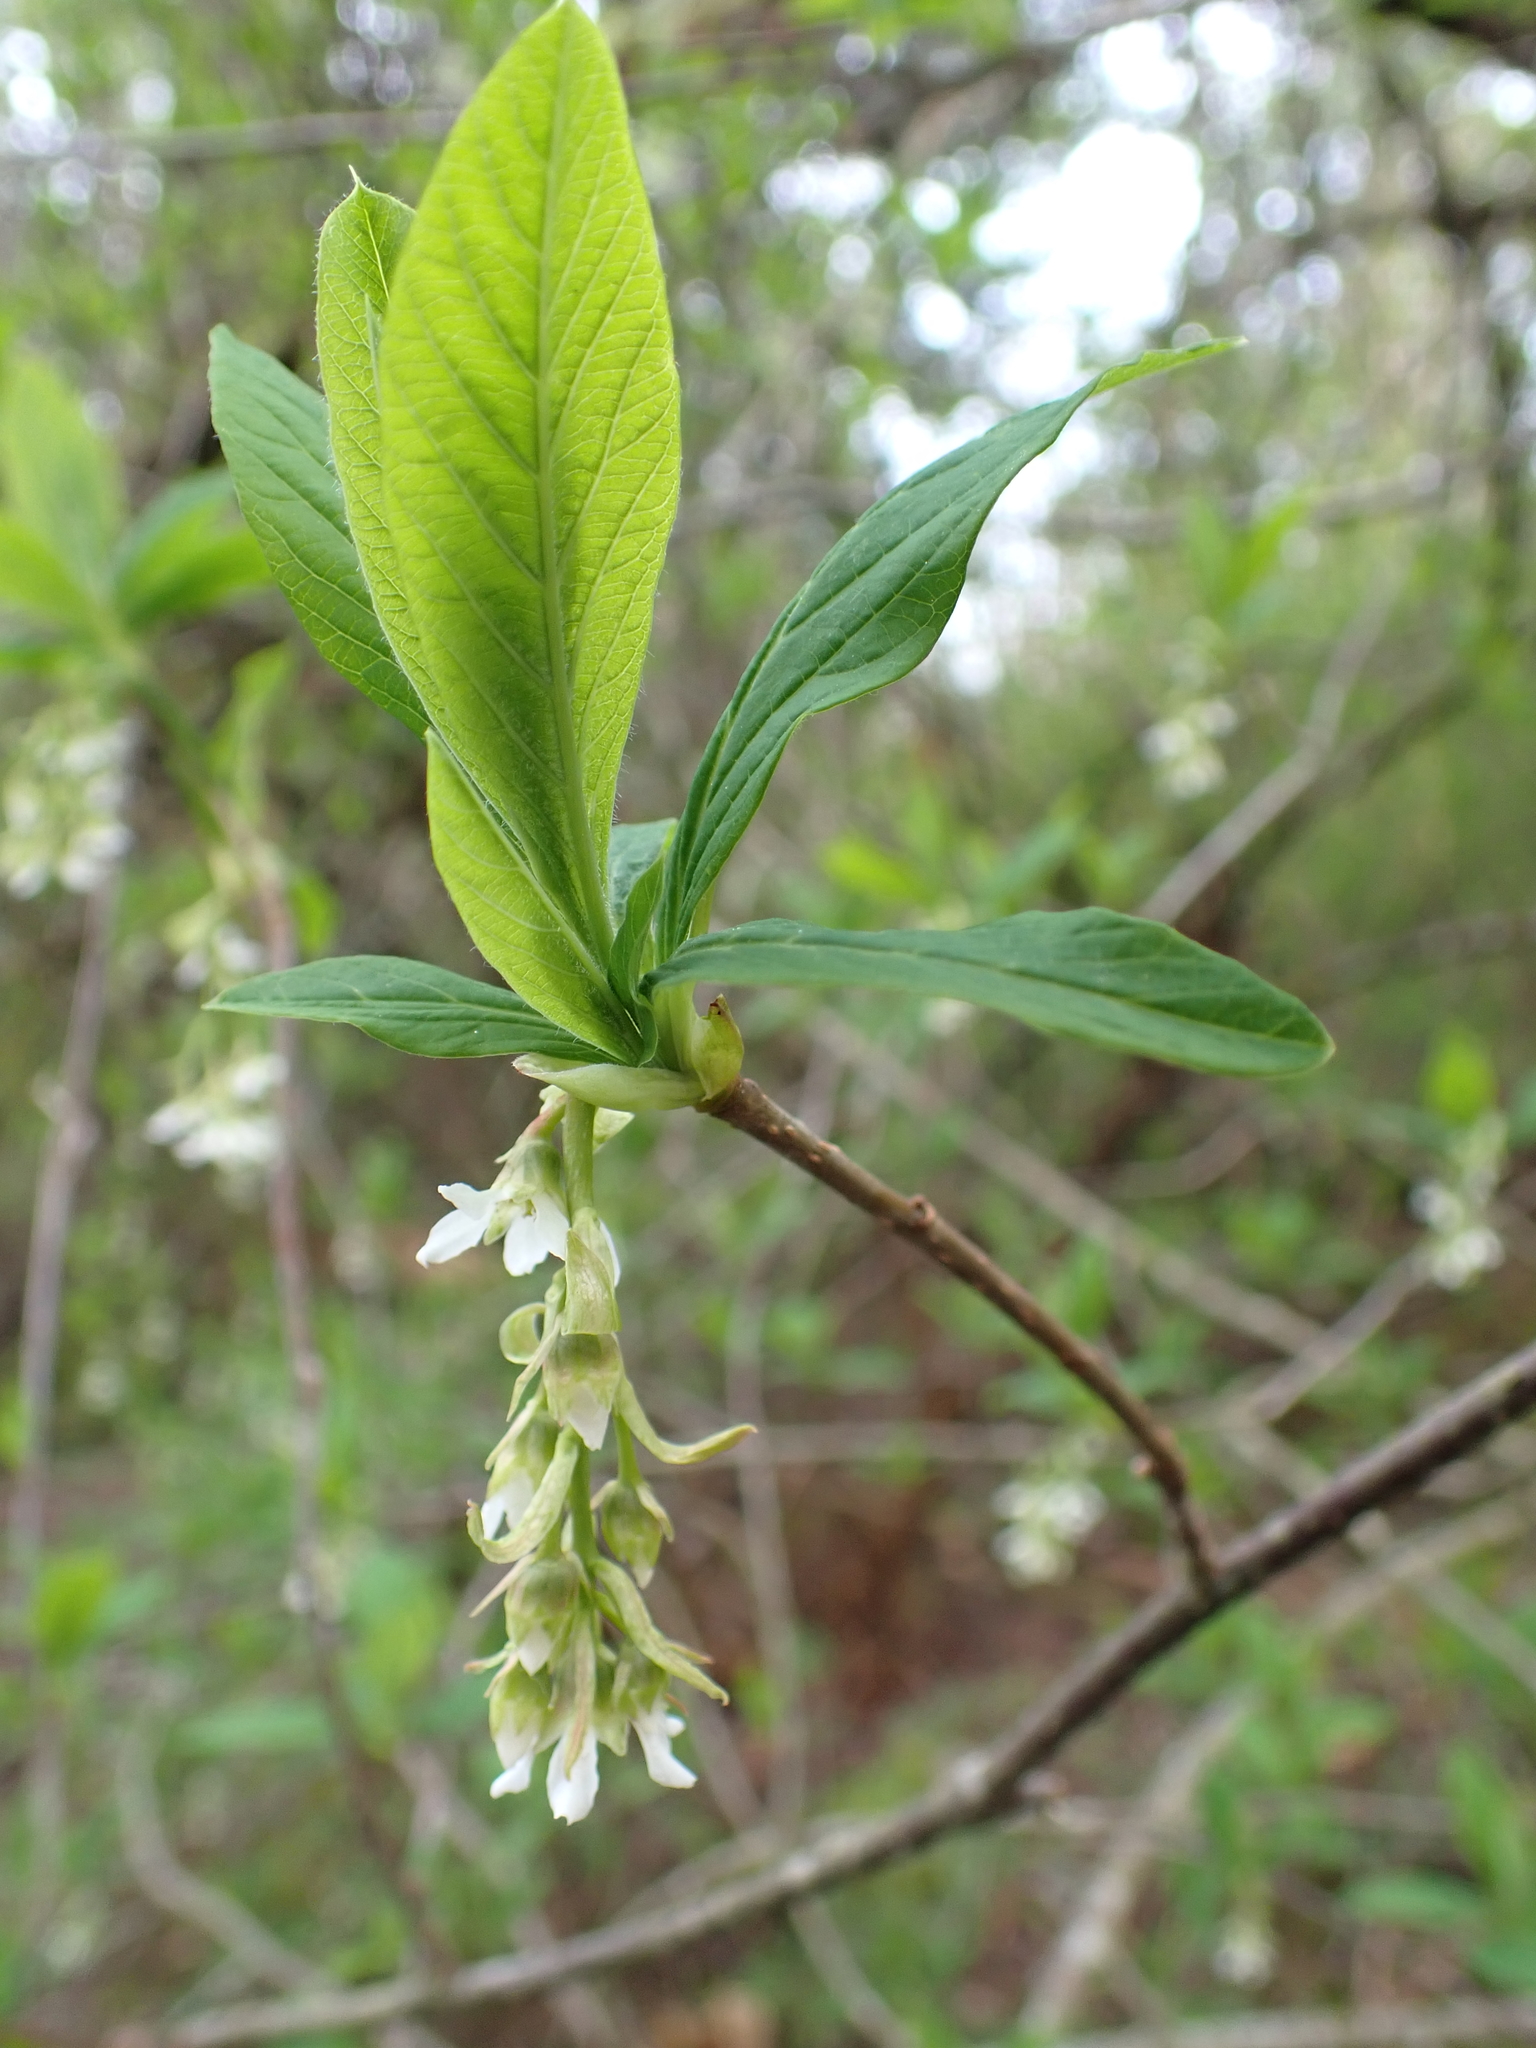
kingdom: Plantae
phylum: Tracheophyta
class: Magnoliopsida
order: Rosales
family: Rosaceae
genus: Oemleria
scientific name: Oemleria cerasiformis
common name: Osoberry
